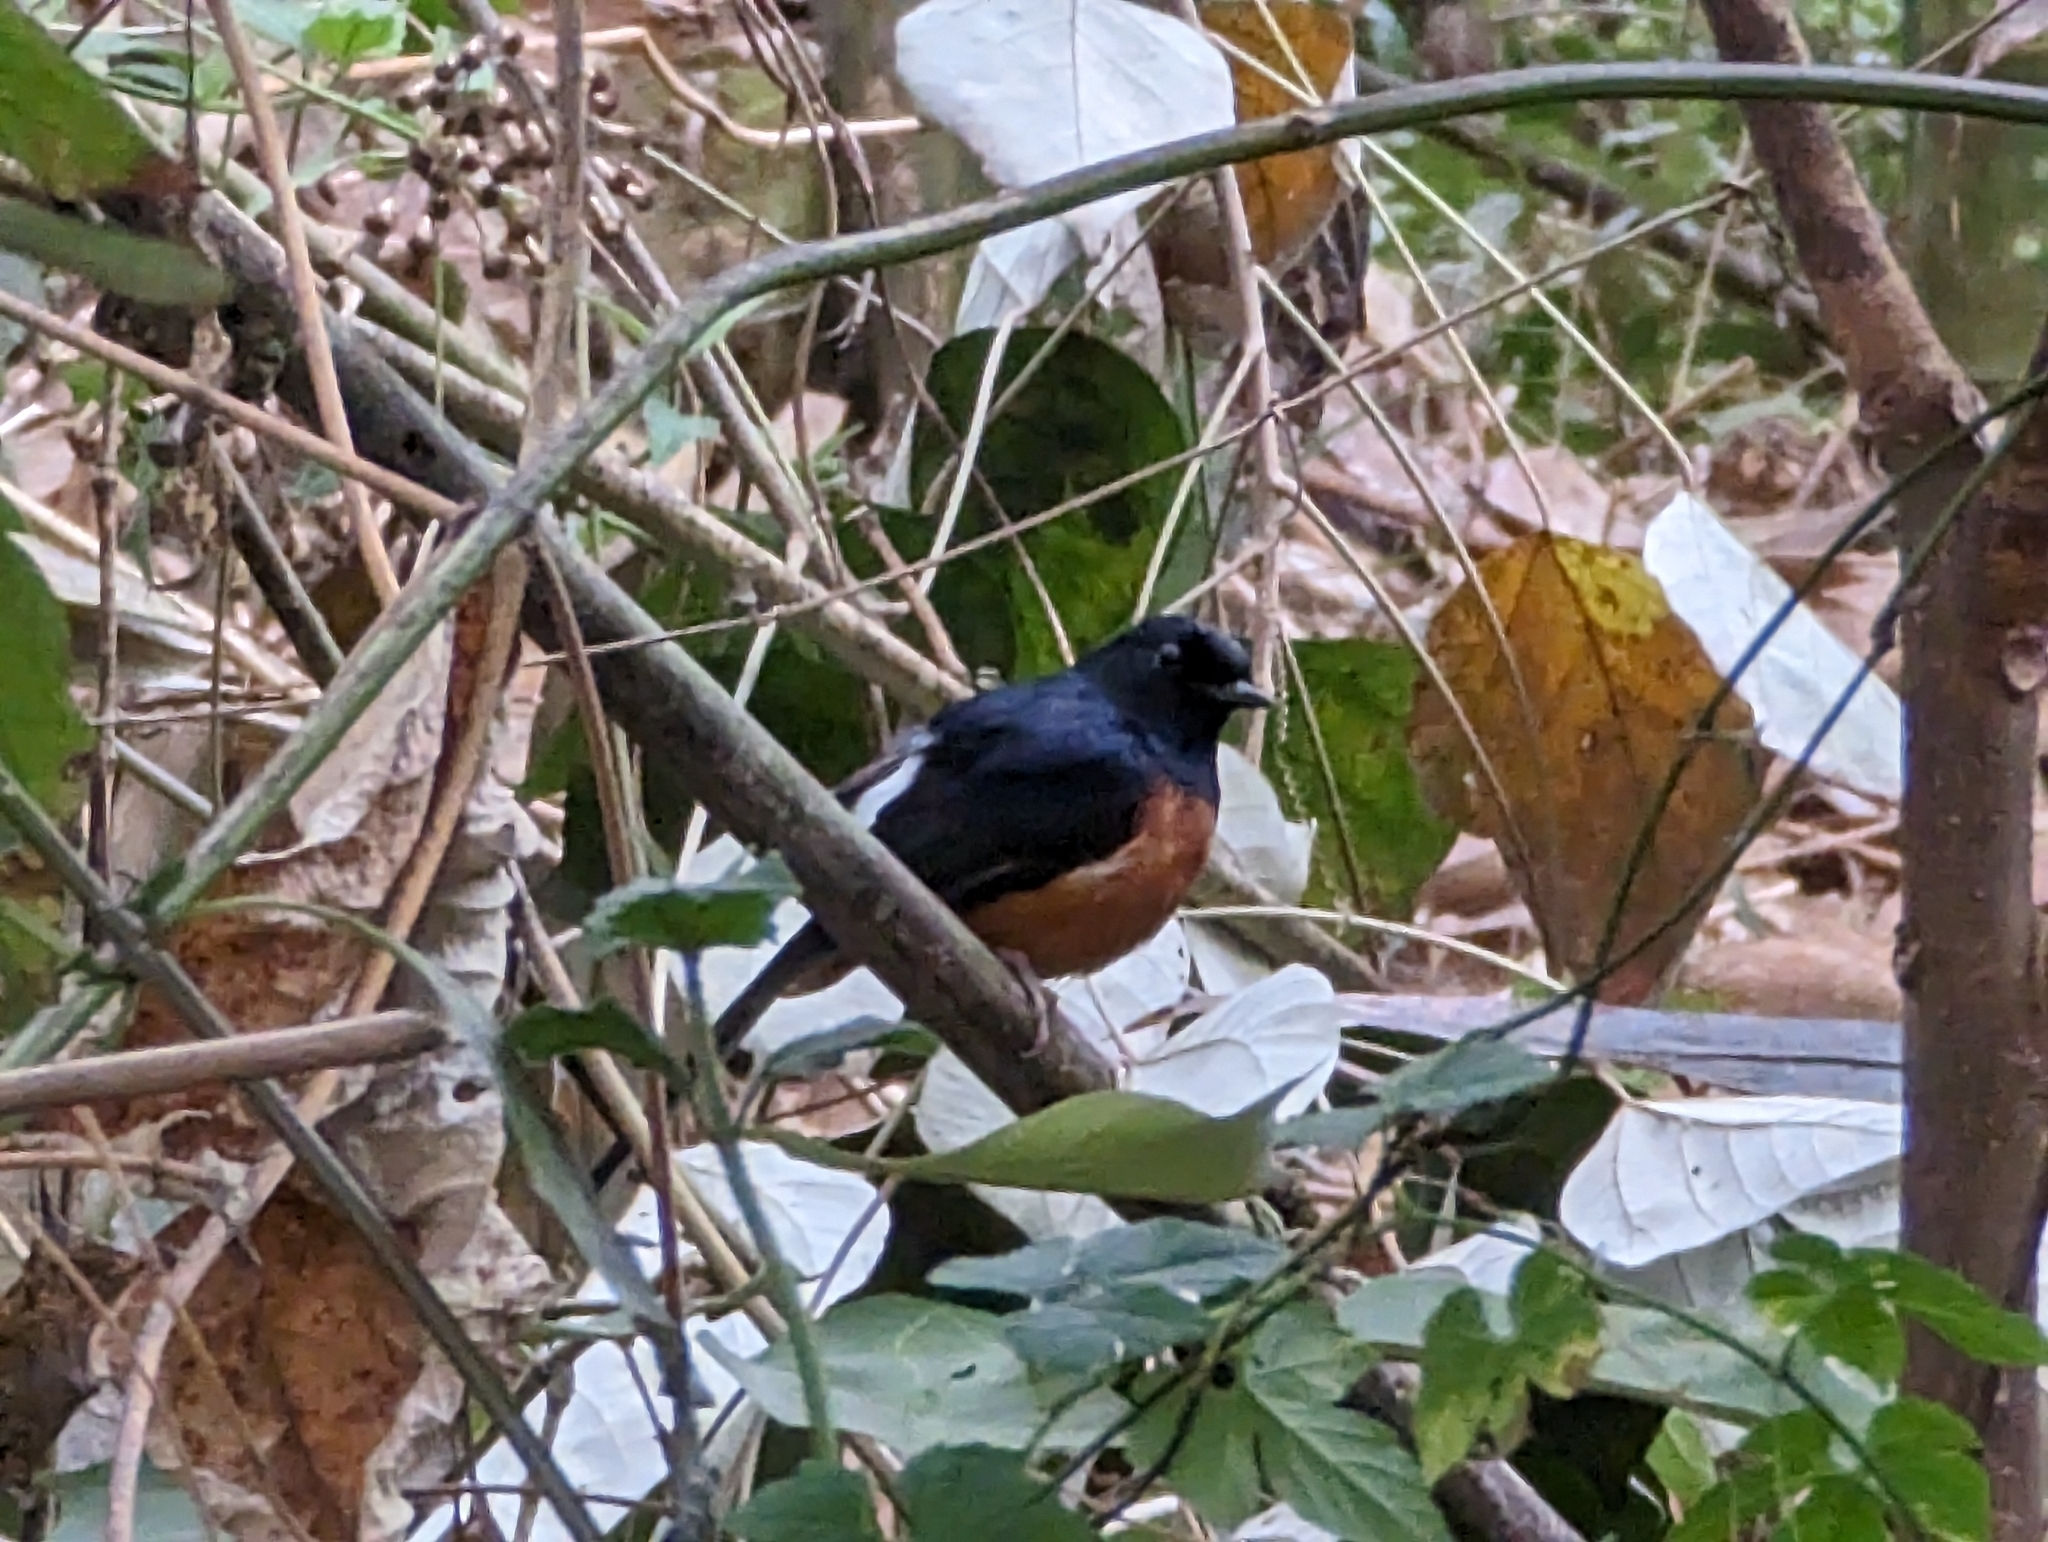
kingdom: Animalia
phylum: Chordata
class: Aves
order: Passeriformes
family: Muscicapidae
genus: Copsychus
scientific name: Copsychus malabaricus
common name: White-rumped shama
